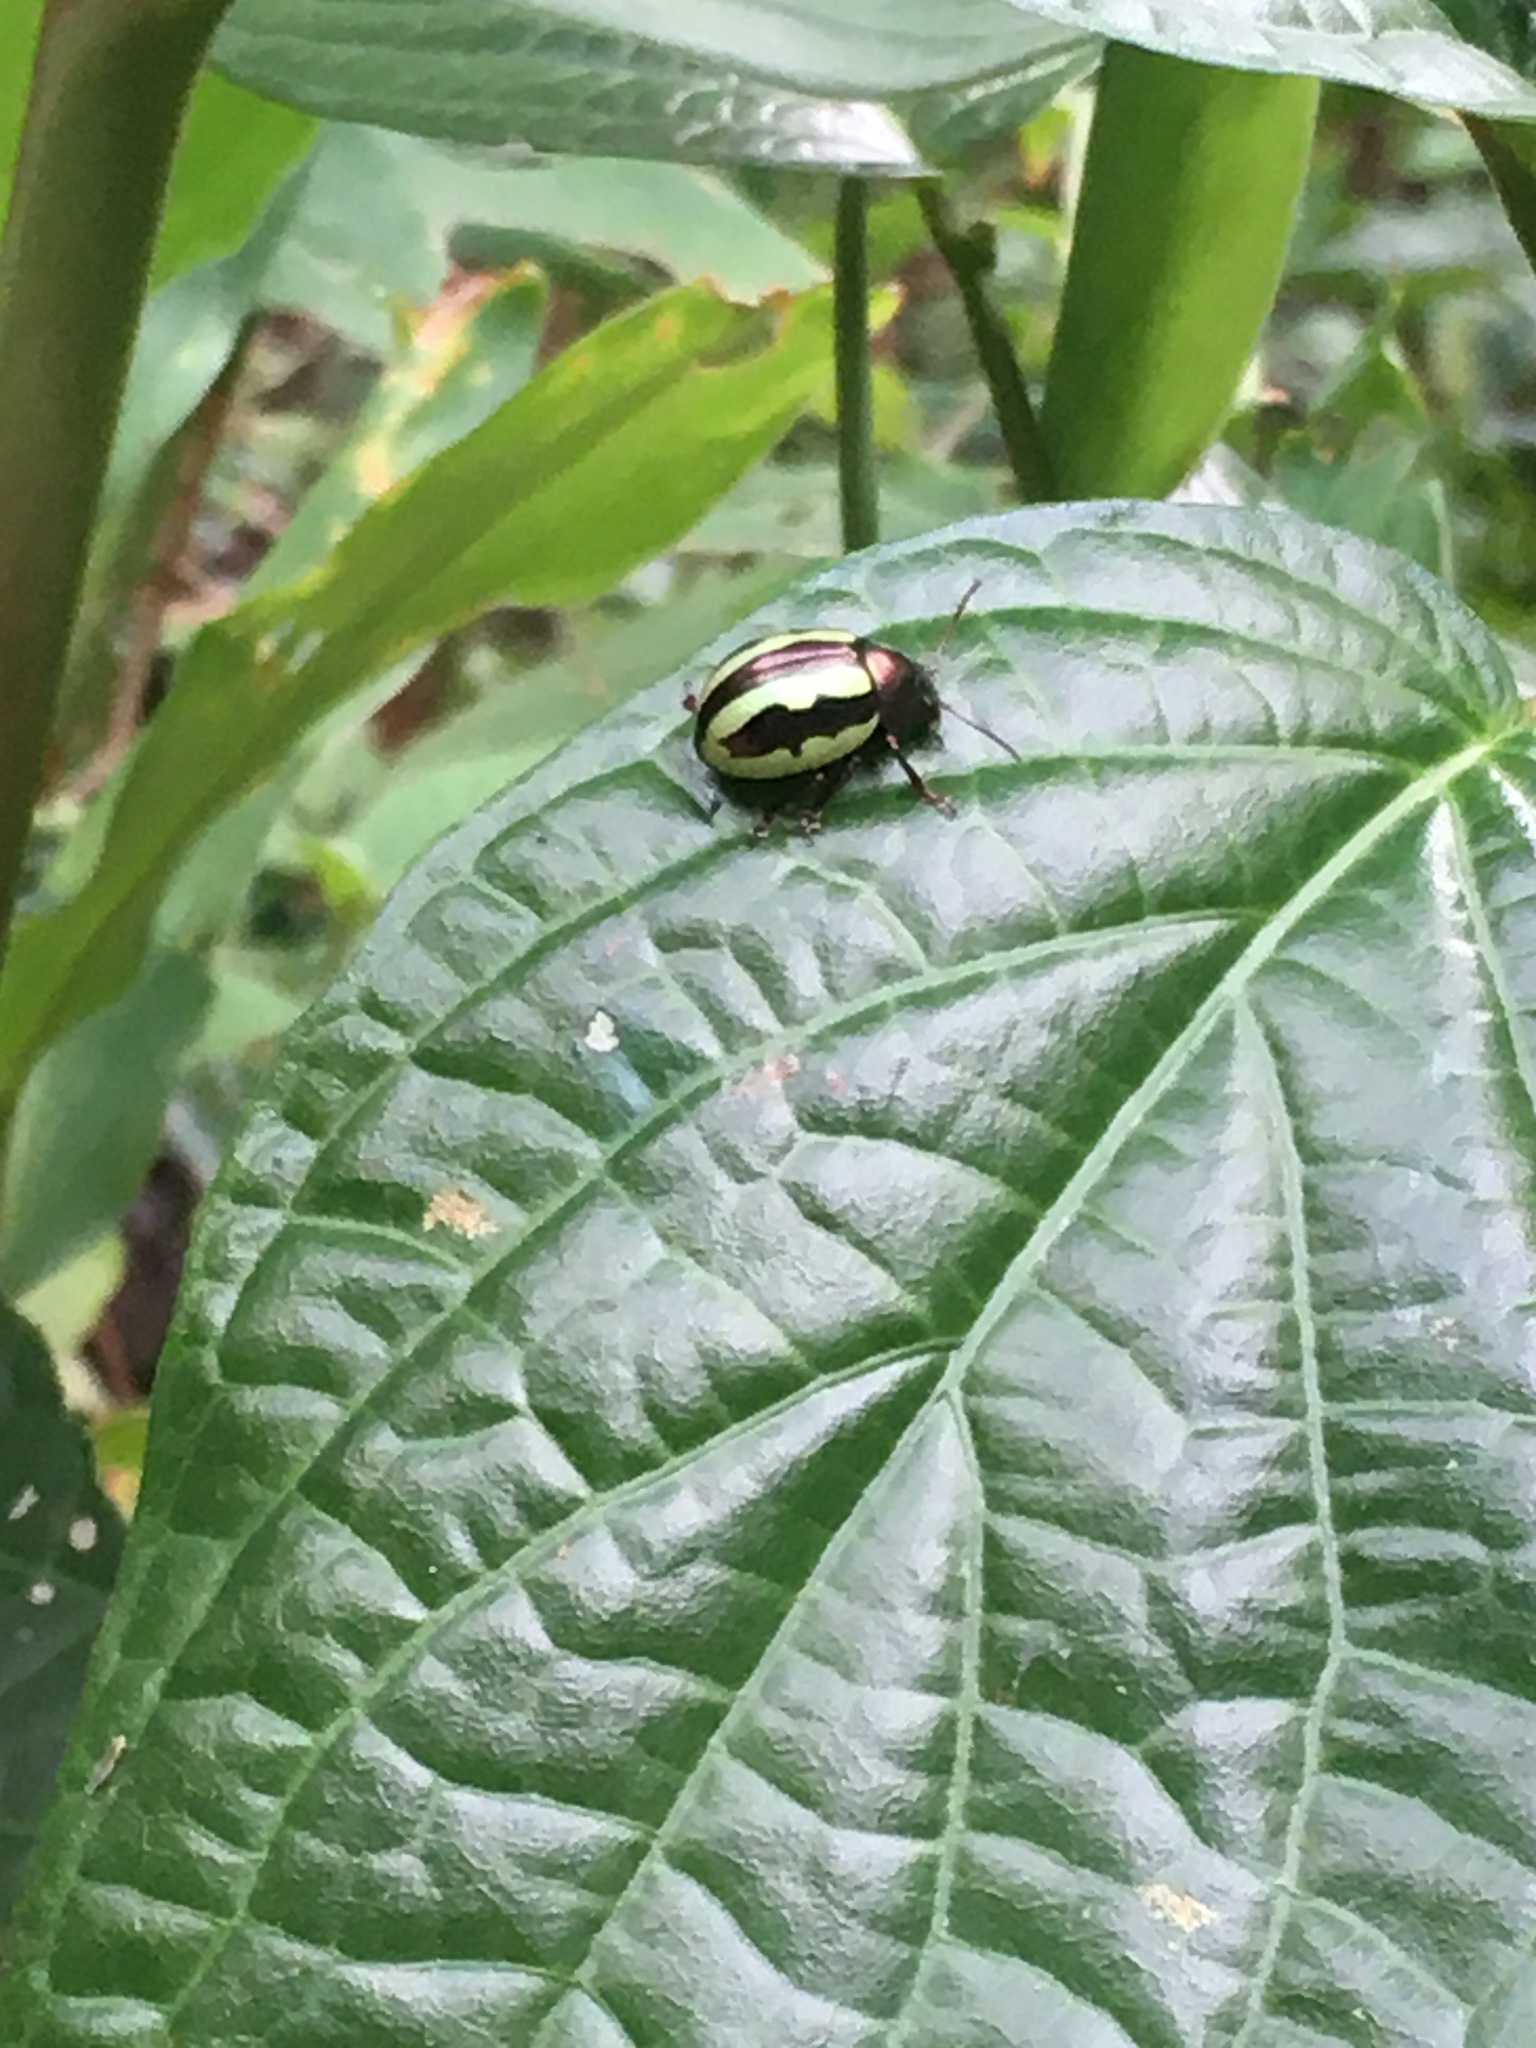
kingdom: Animalia
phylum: Arthropoda
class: Insecta
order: Coleoptera
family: Chrysomelidae
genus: Leptinotarsa
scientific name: Leptinotarsa
